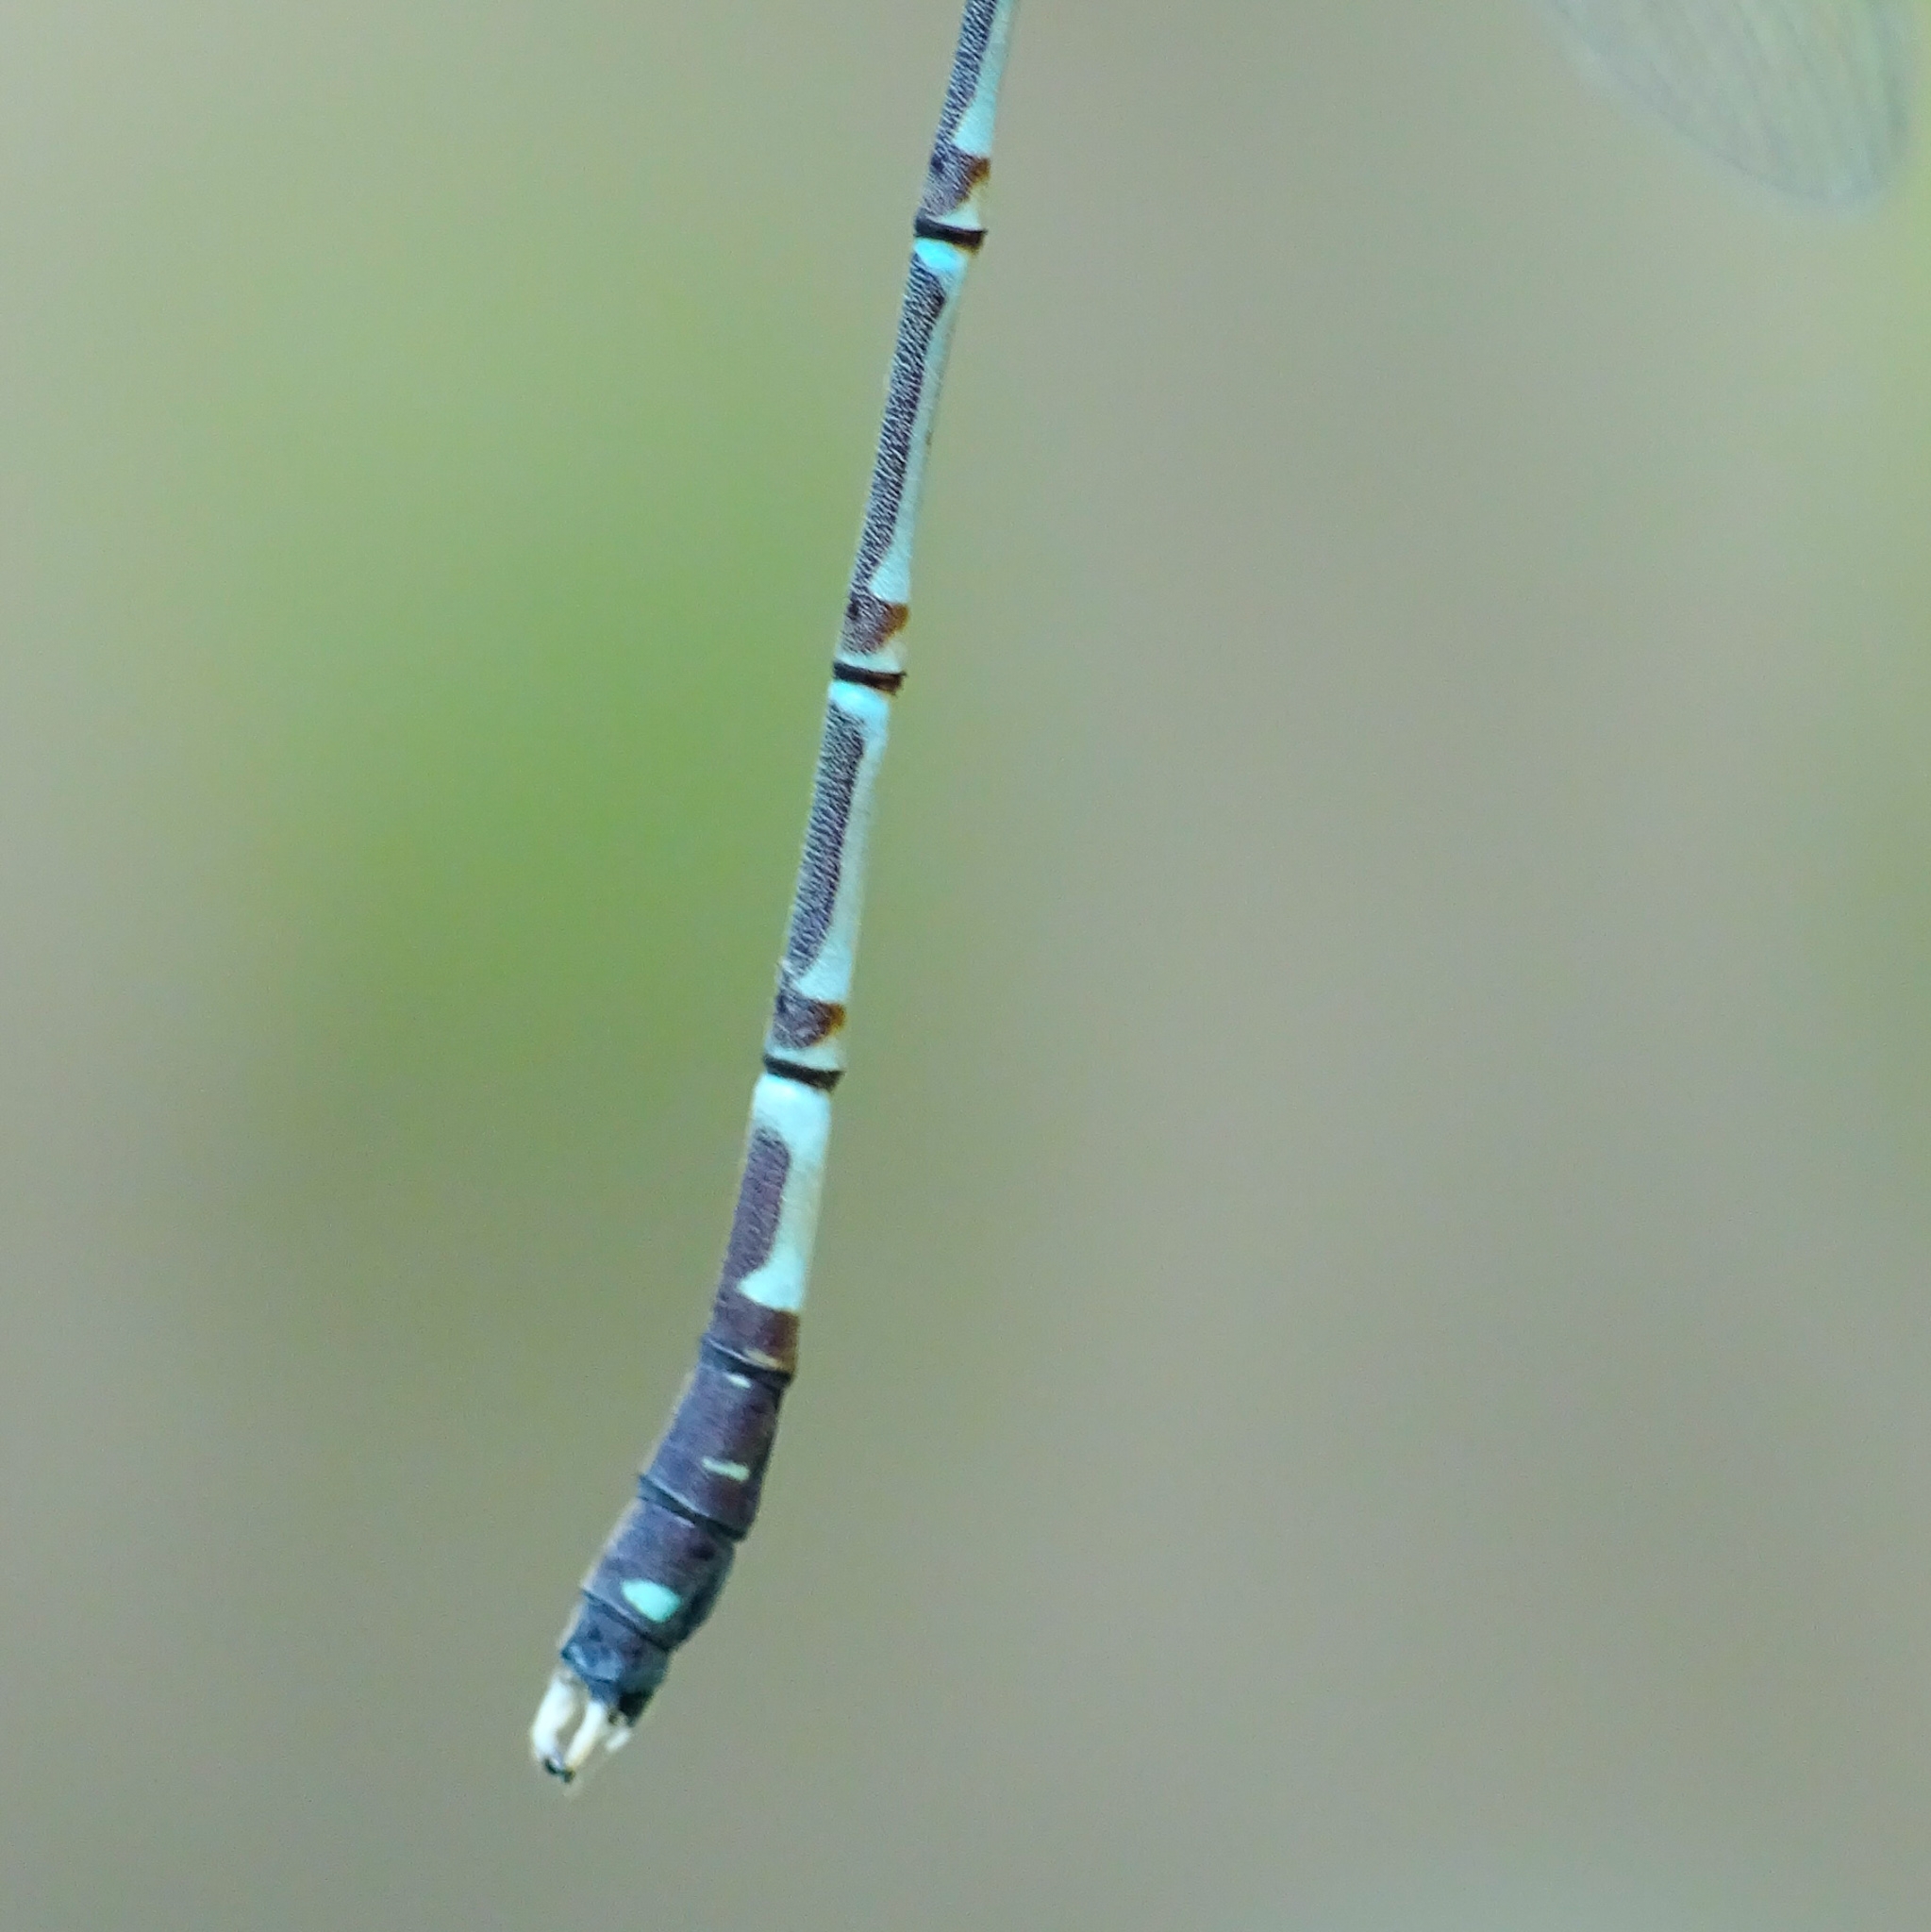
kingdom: Animalia
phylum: Arthropoda
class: Insecta
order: Odonata
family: Lestidae
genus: Lestes
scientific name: Lestes praemorsus
